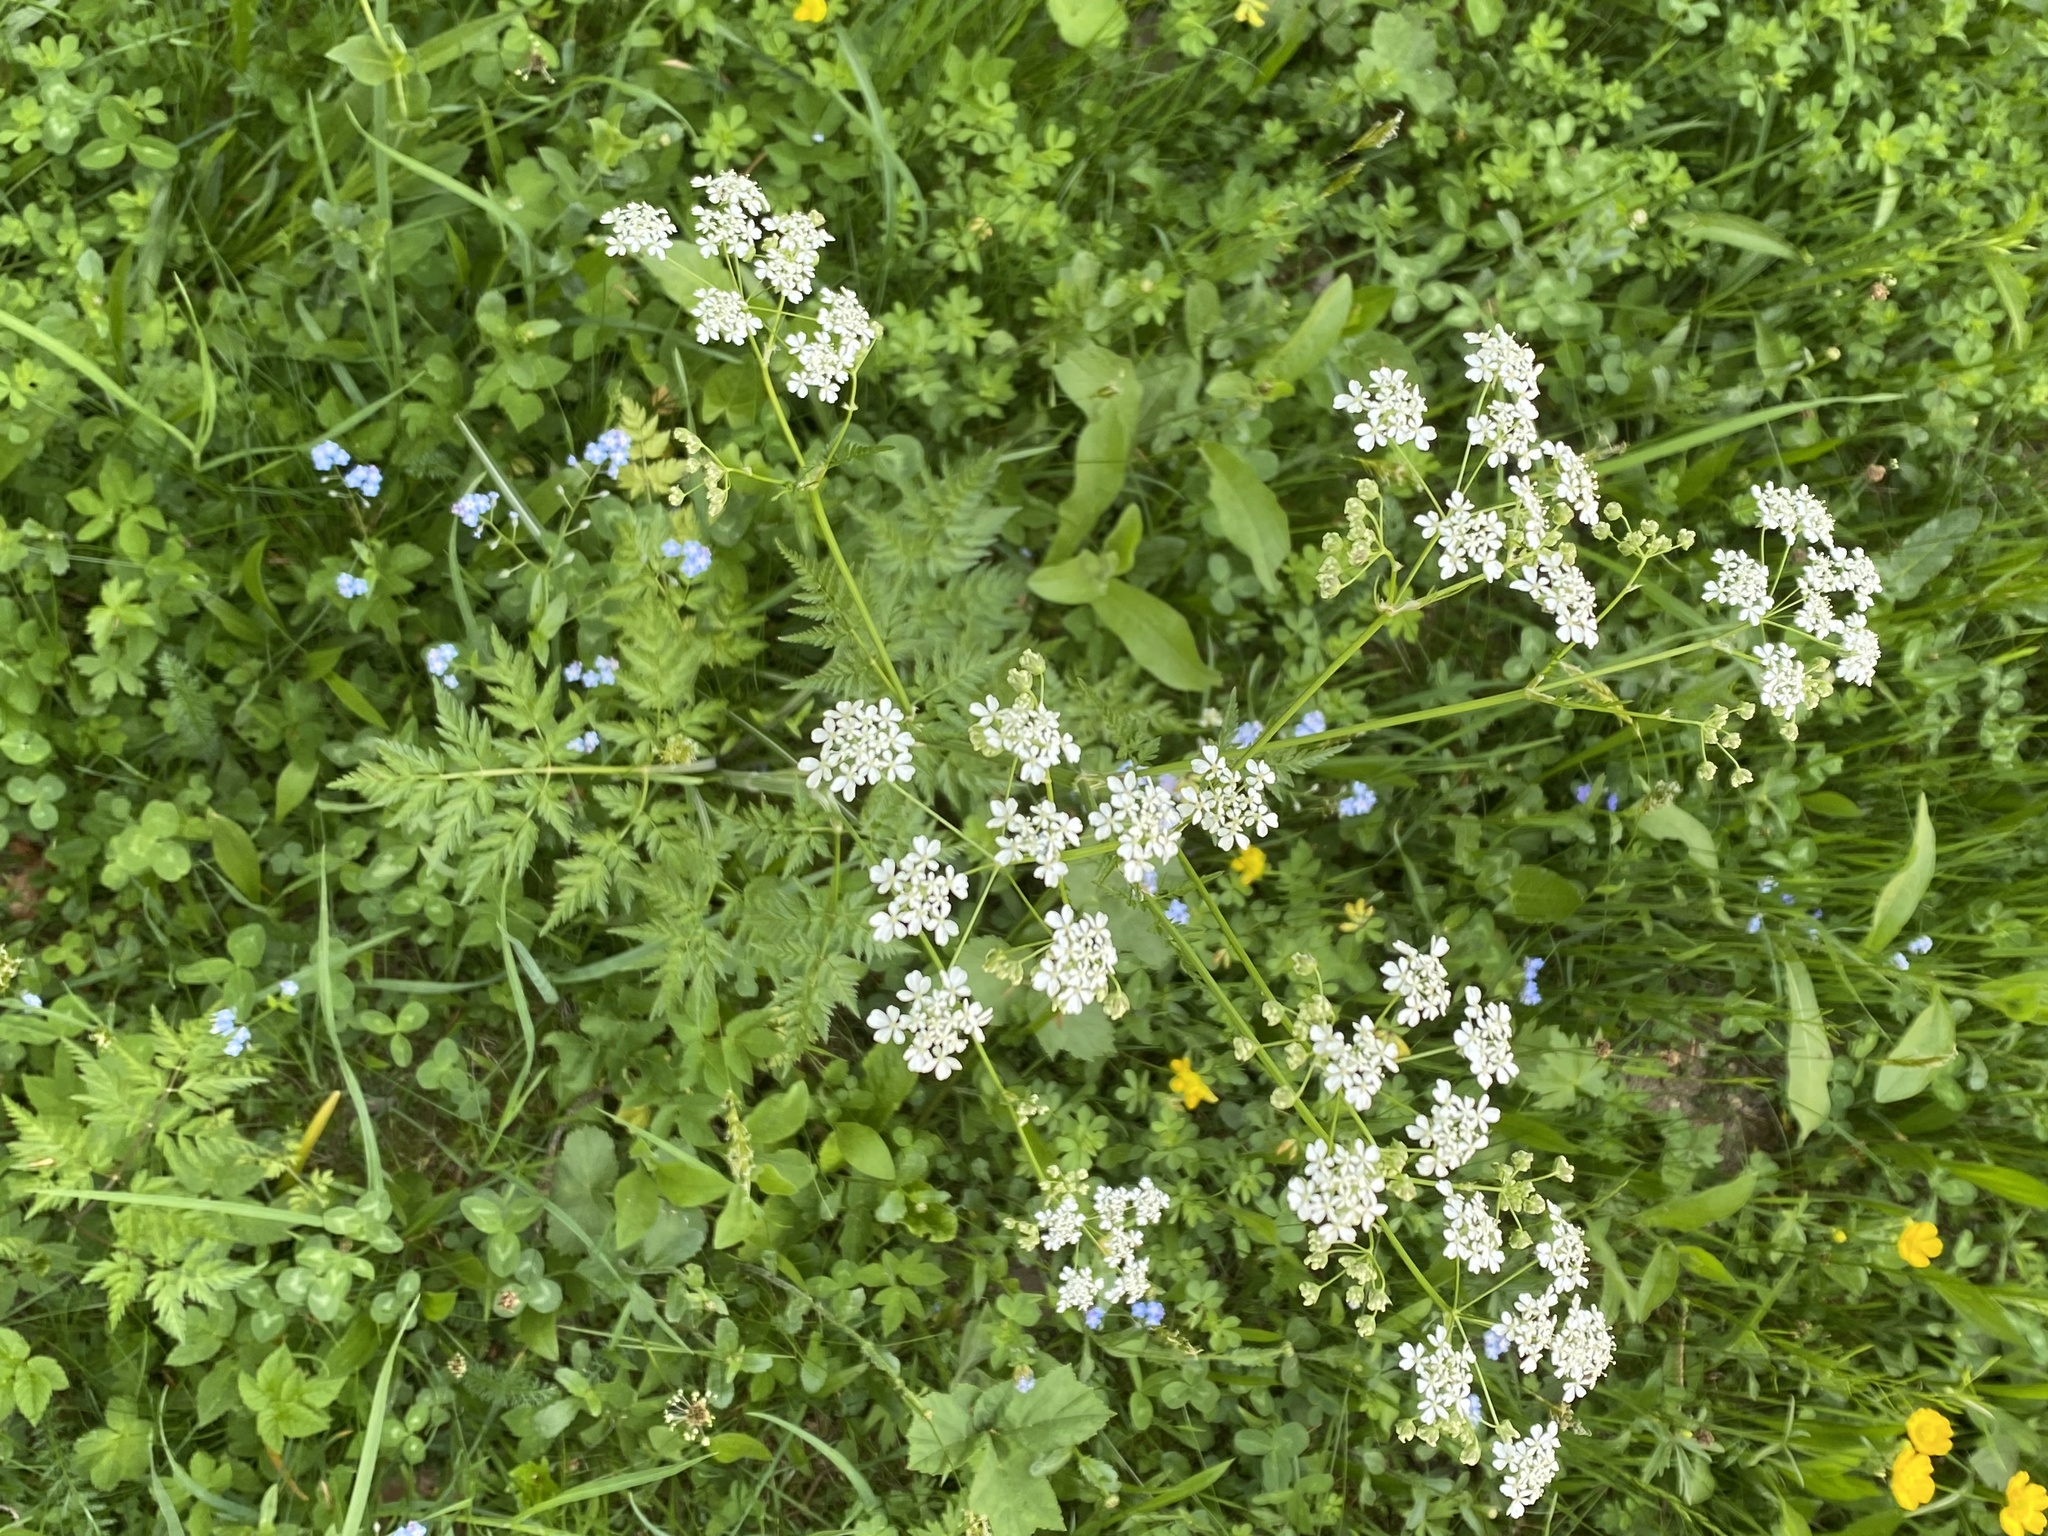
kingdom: Plantae
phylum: Tracheophyta
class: Magnoliopsida
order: Apiales
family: Apiaceae
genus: Chaerophyllum
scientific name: Chaerophyllum aureum
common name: Golden chervil
